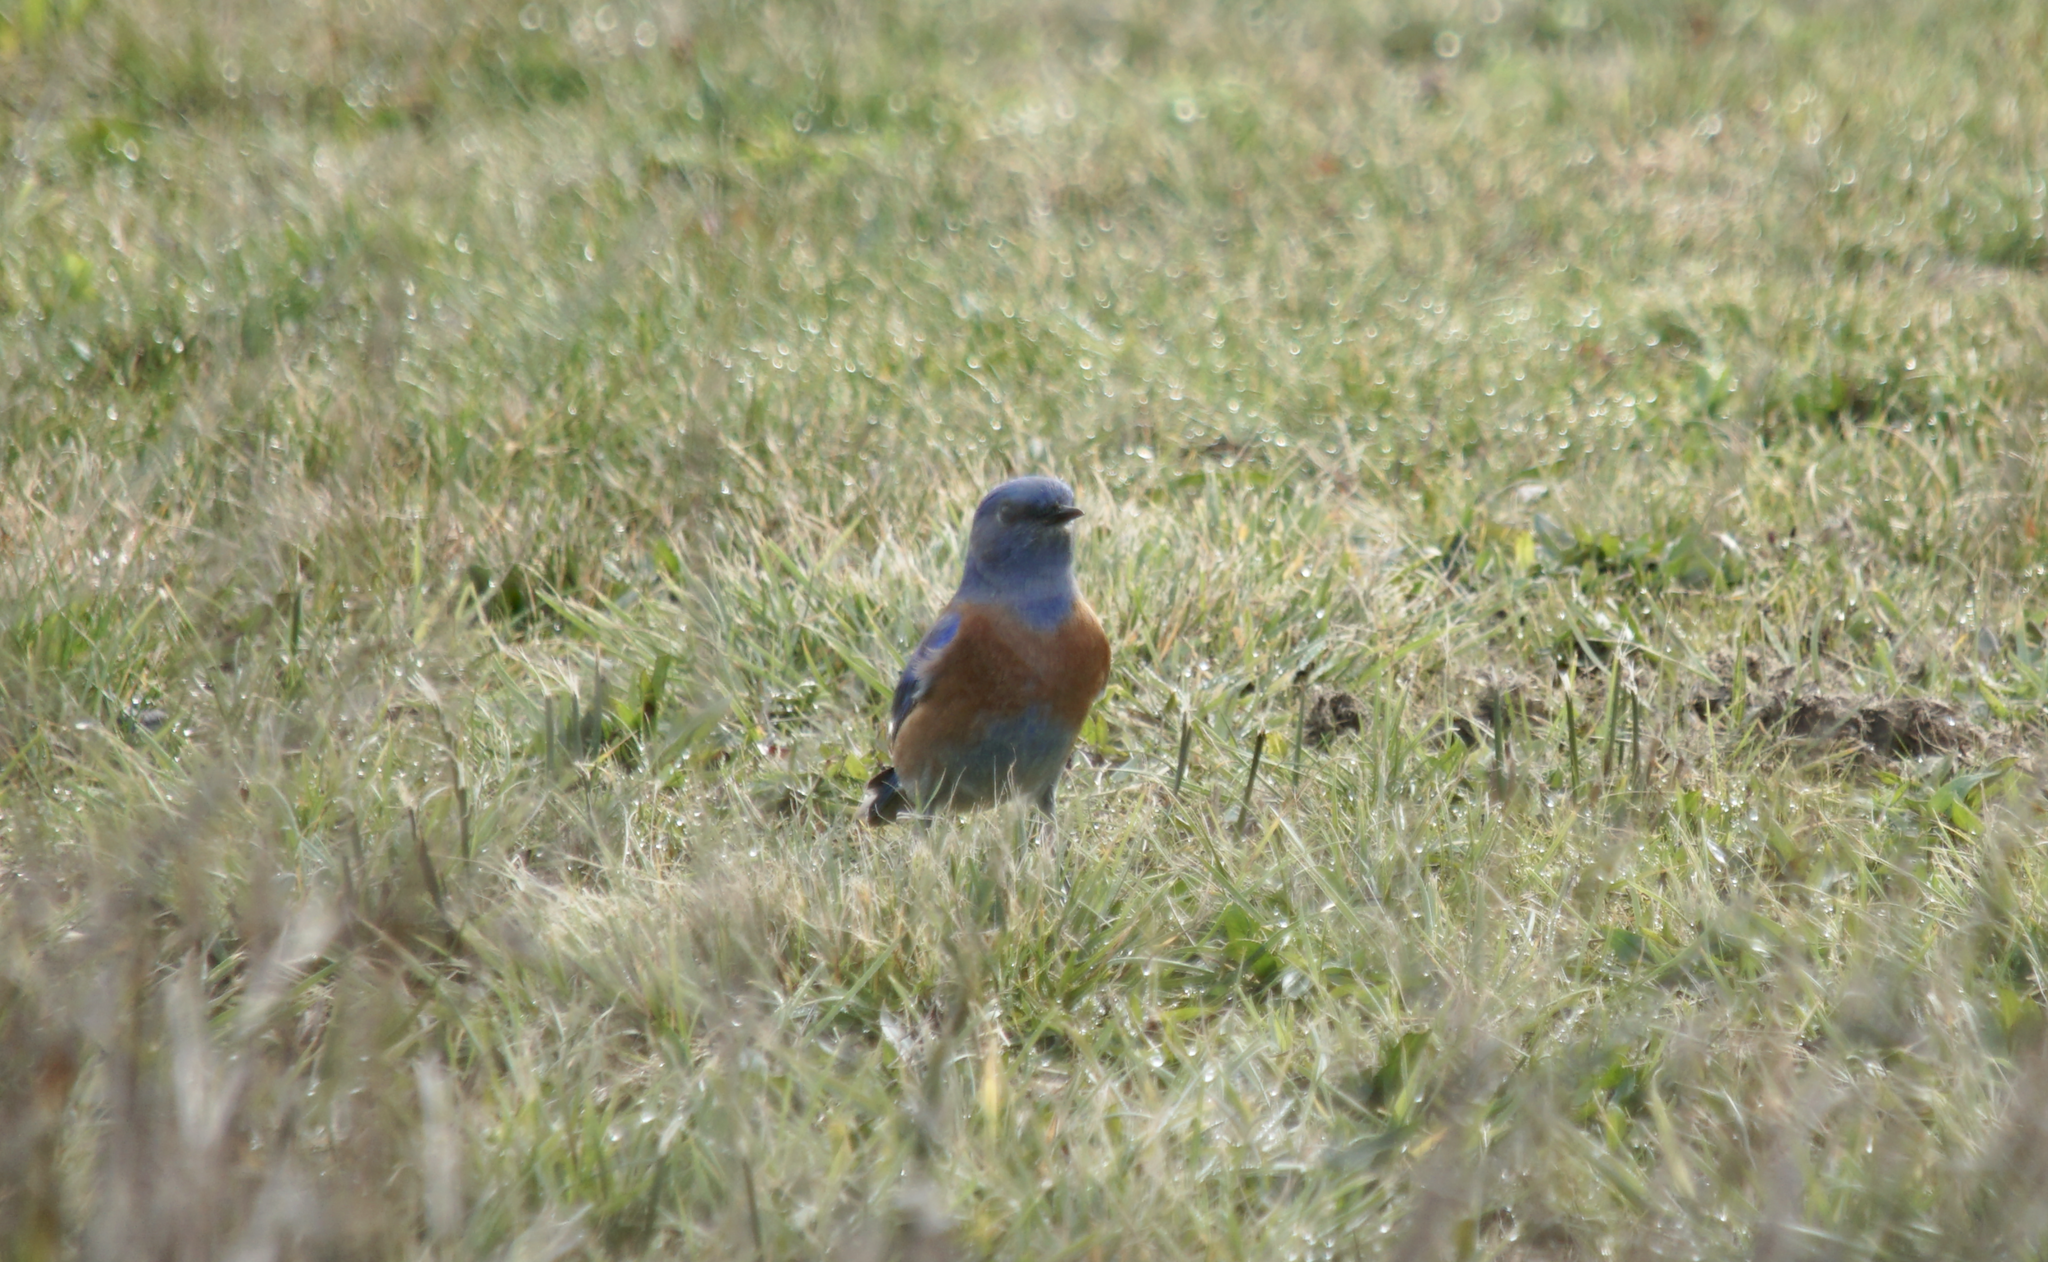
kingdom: Animalia
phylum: Chordata
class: Aves
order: Passeriformes
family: Turdidae
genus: Sialia
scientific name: Sialia mexicana
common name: Western bluebird
